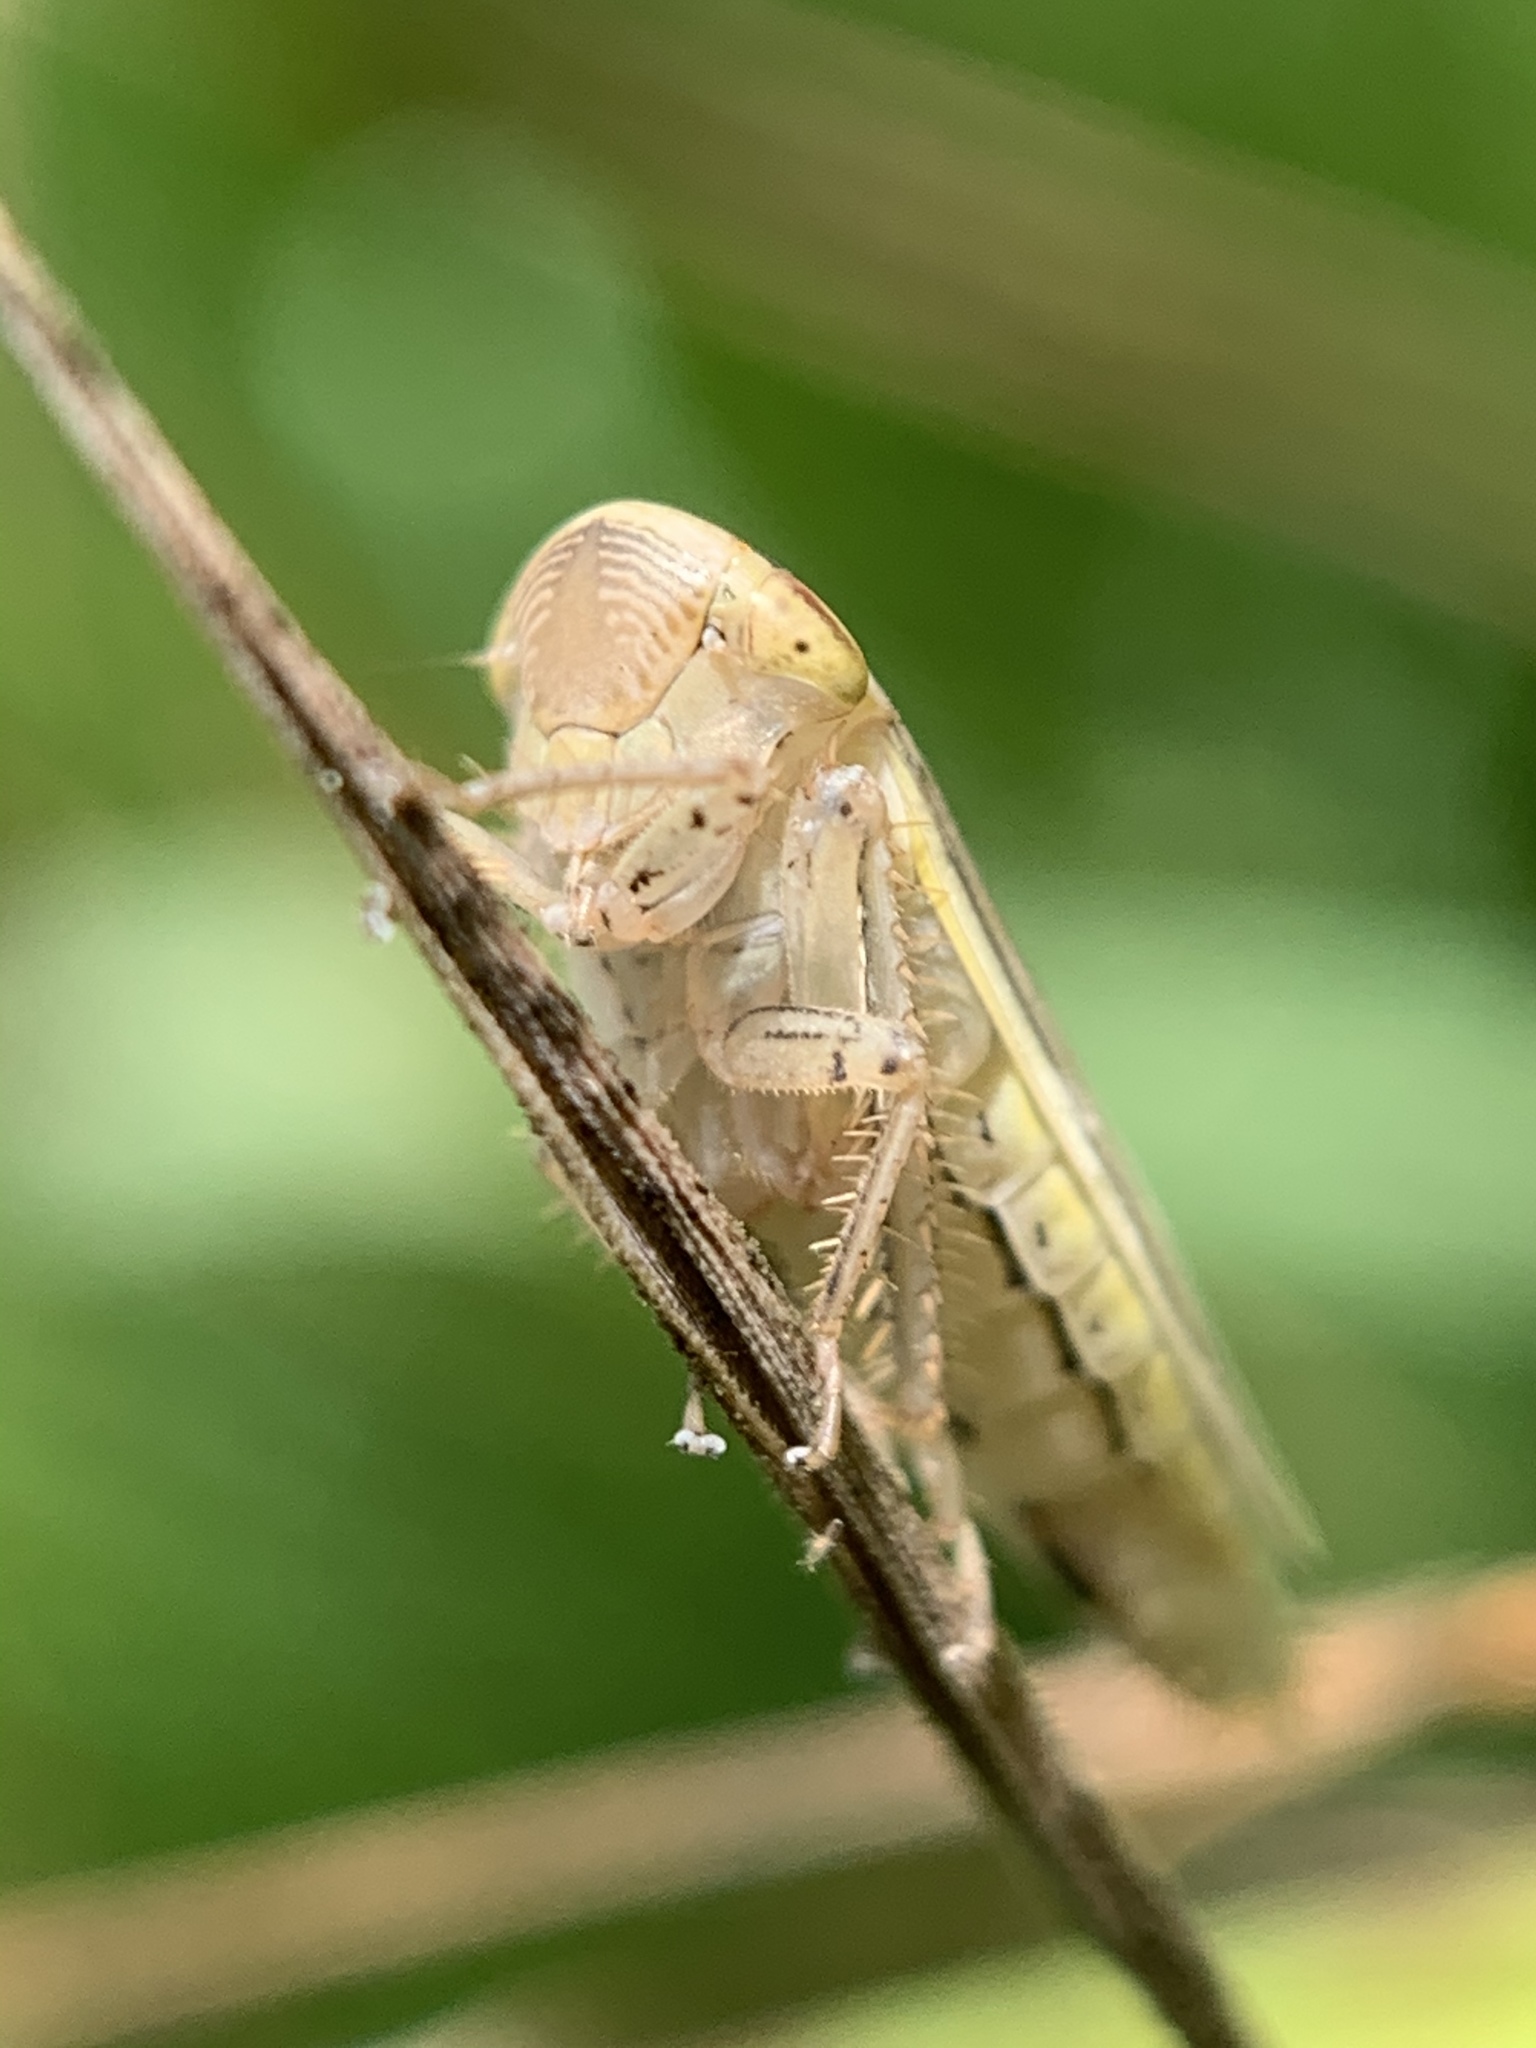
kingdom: Animalia
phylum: Arthropoda
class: Insecta
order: Hemiptera
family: Cicadellidae
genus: Athysanus
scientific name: Athysanus argentarius
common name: Silver leafhopper
